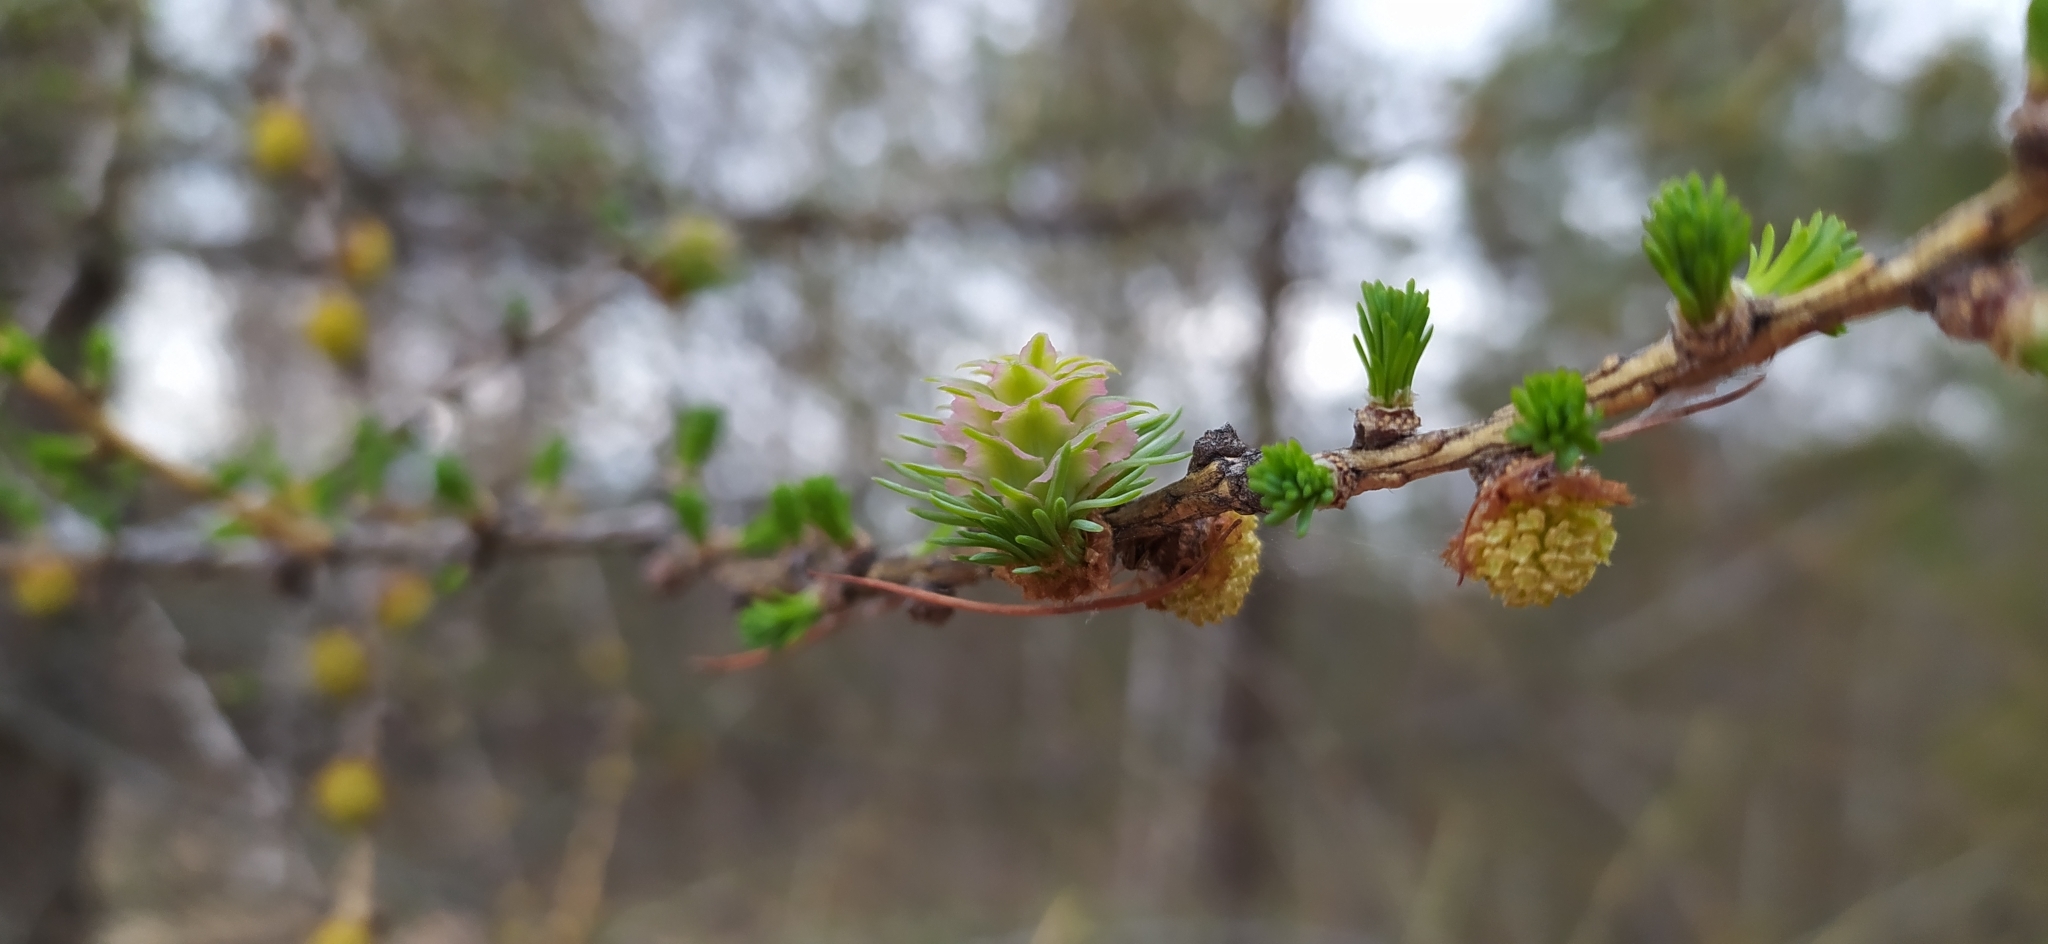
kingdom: Plantae
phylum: Tracheophyta
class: Pinopsida
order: Pinales
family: Pinaceae
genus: Larix
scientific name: Larix sibirica
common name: Siberian larch
